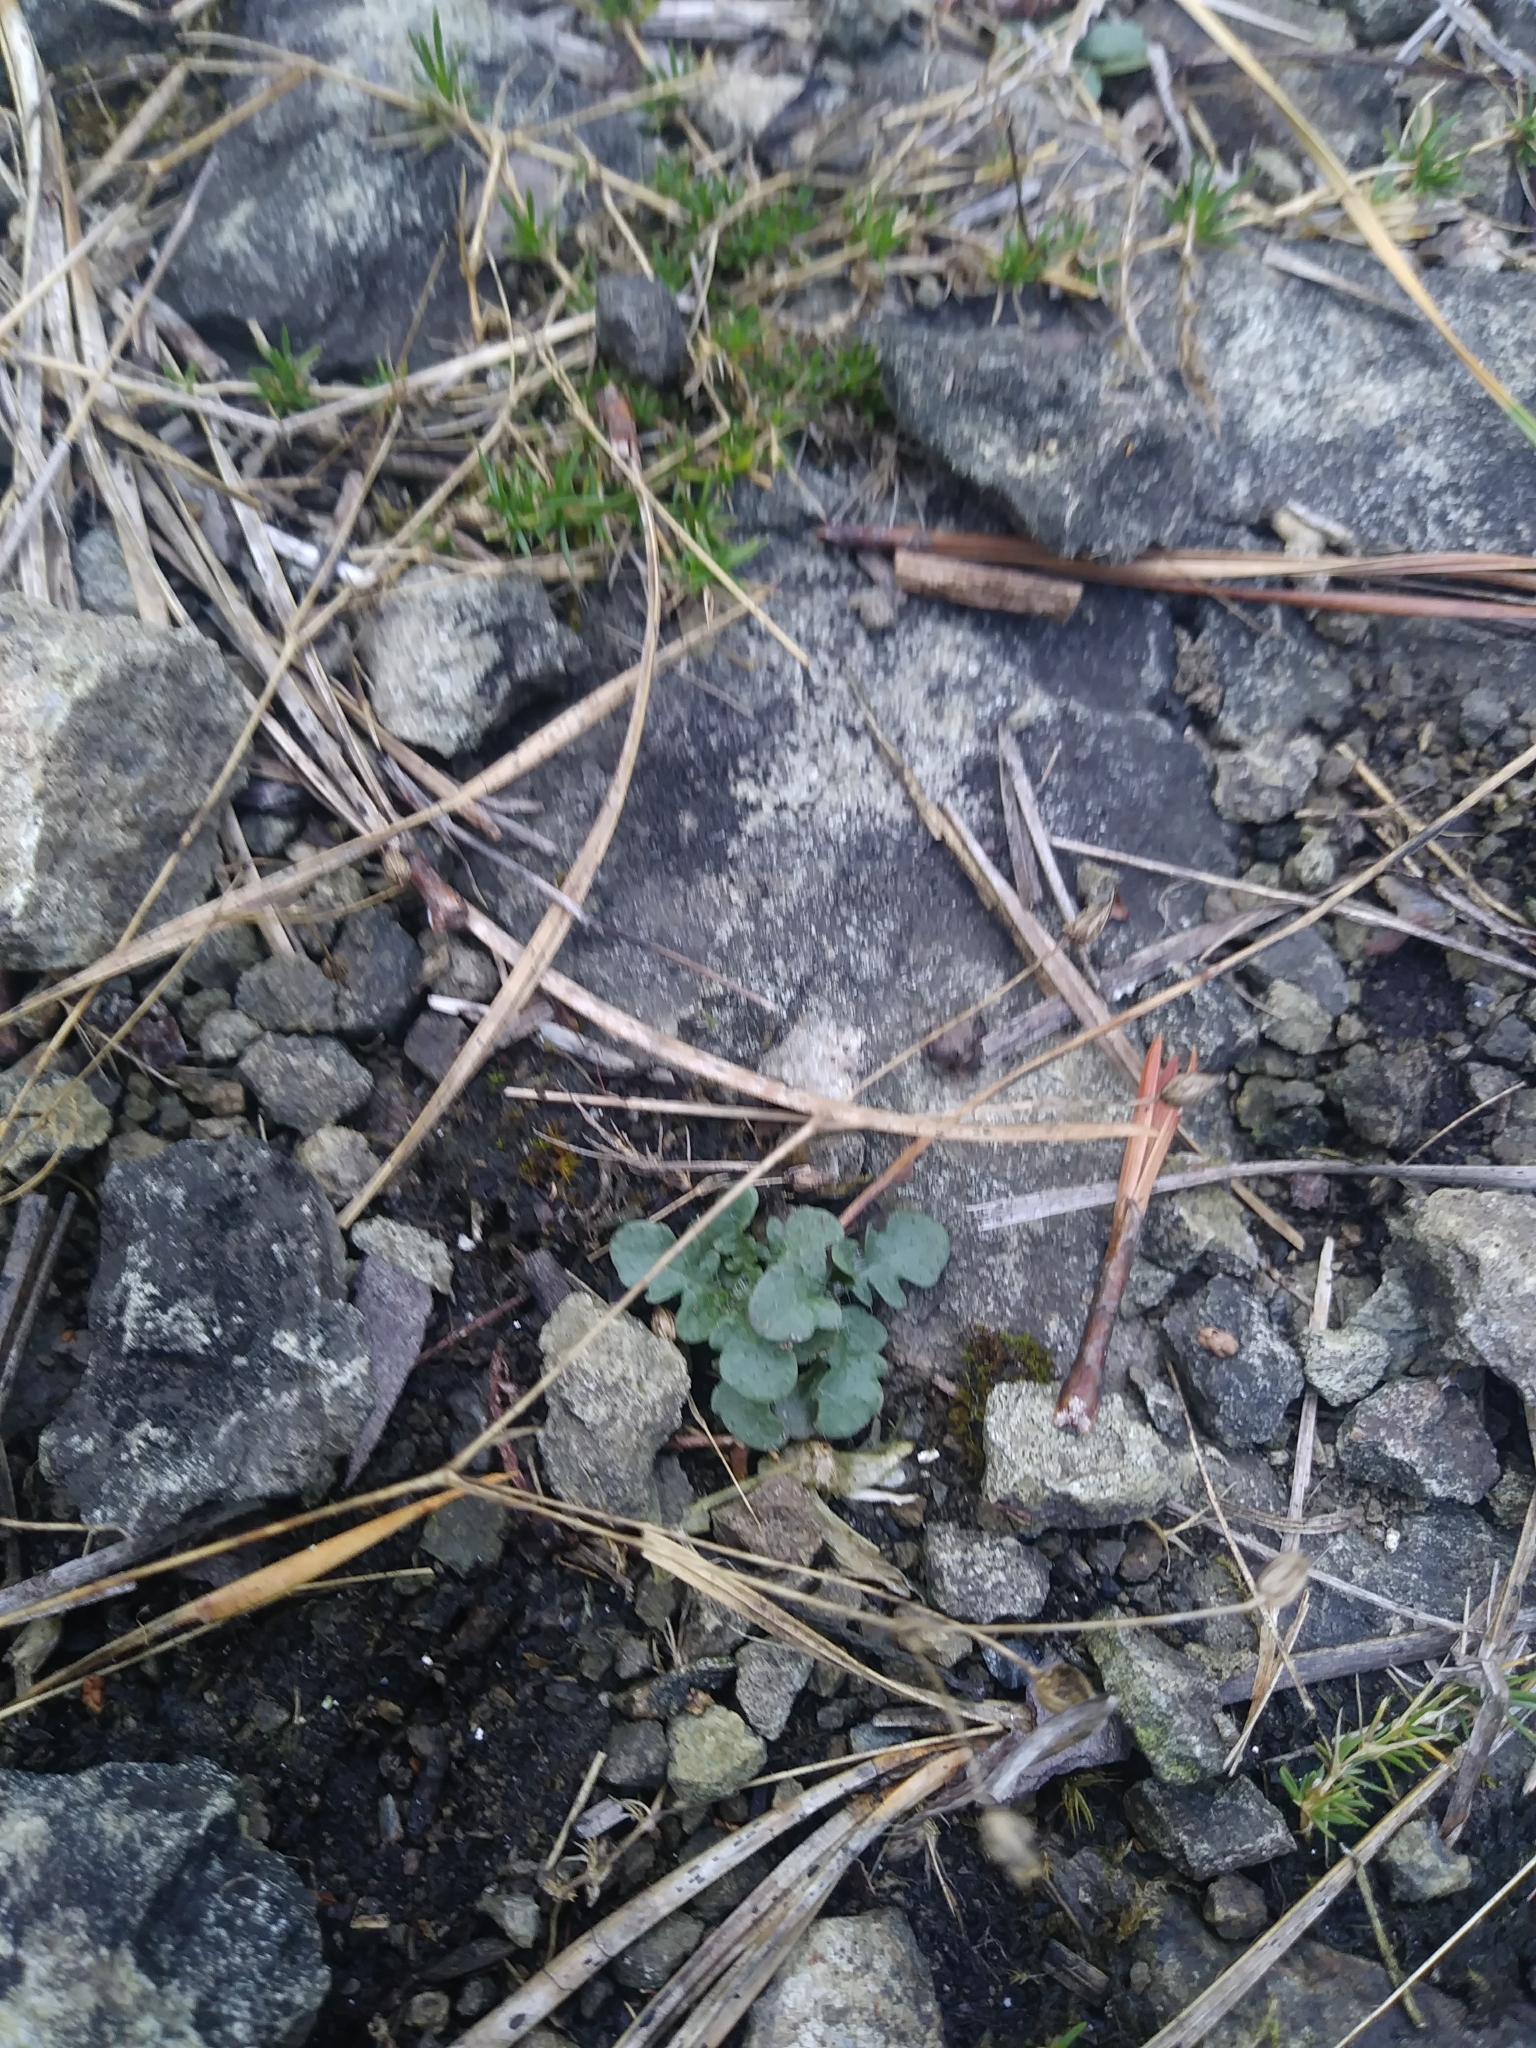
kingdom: Plantae
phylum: Tracheophyta
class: Magnoliopsida
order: Brassicales
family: Brassicaceae
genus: Arabidopsis
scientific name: Arabidopsis lyrata
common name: Lyrate rockcress
